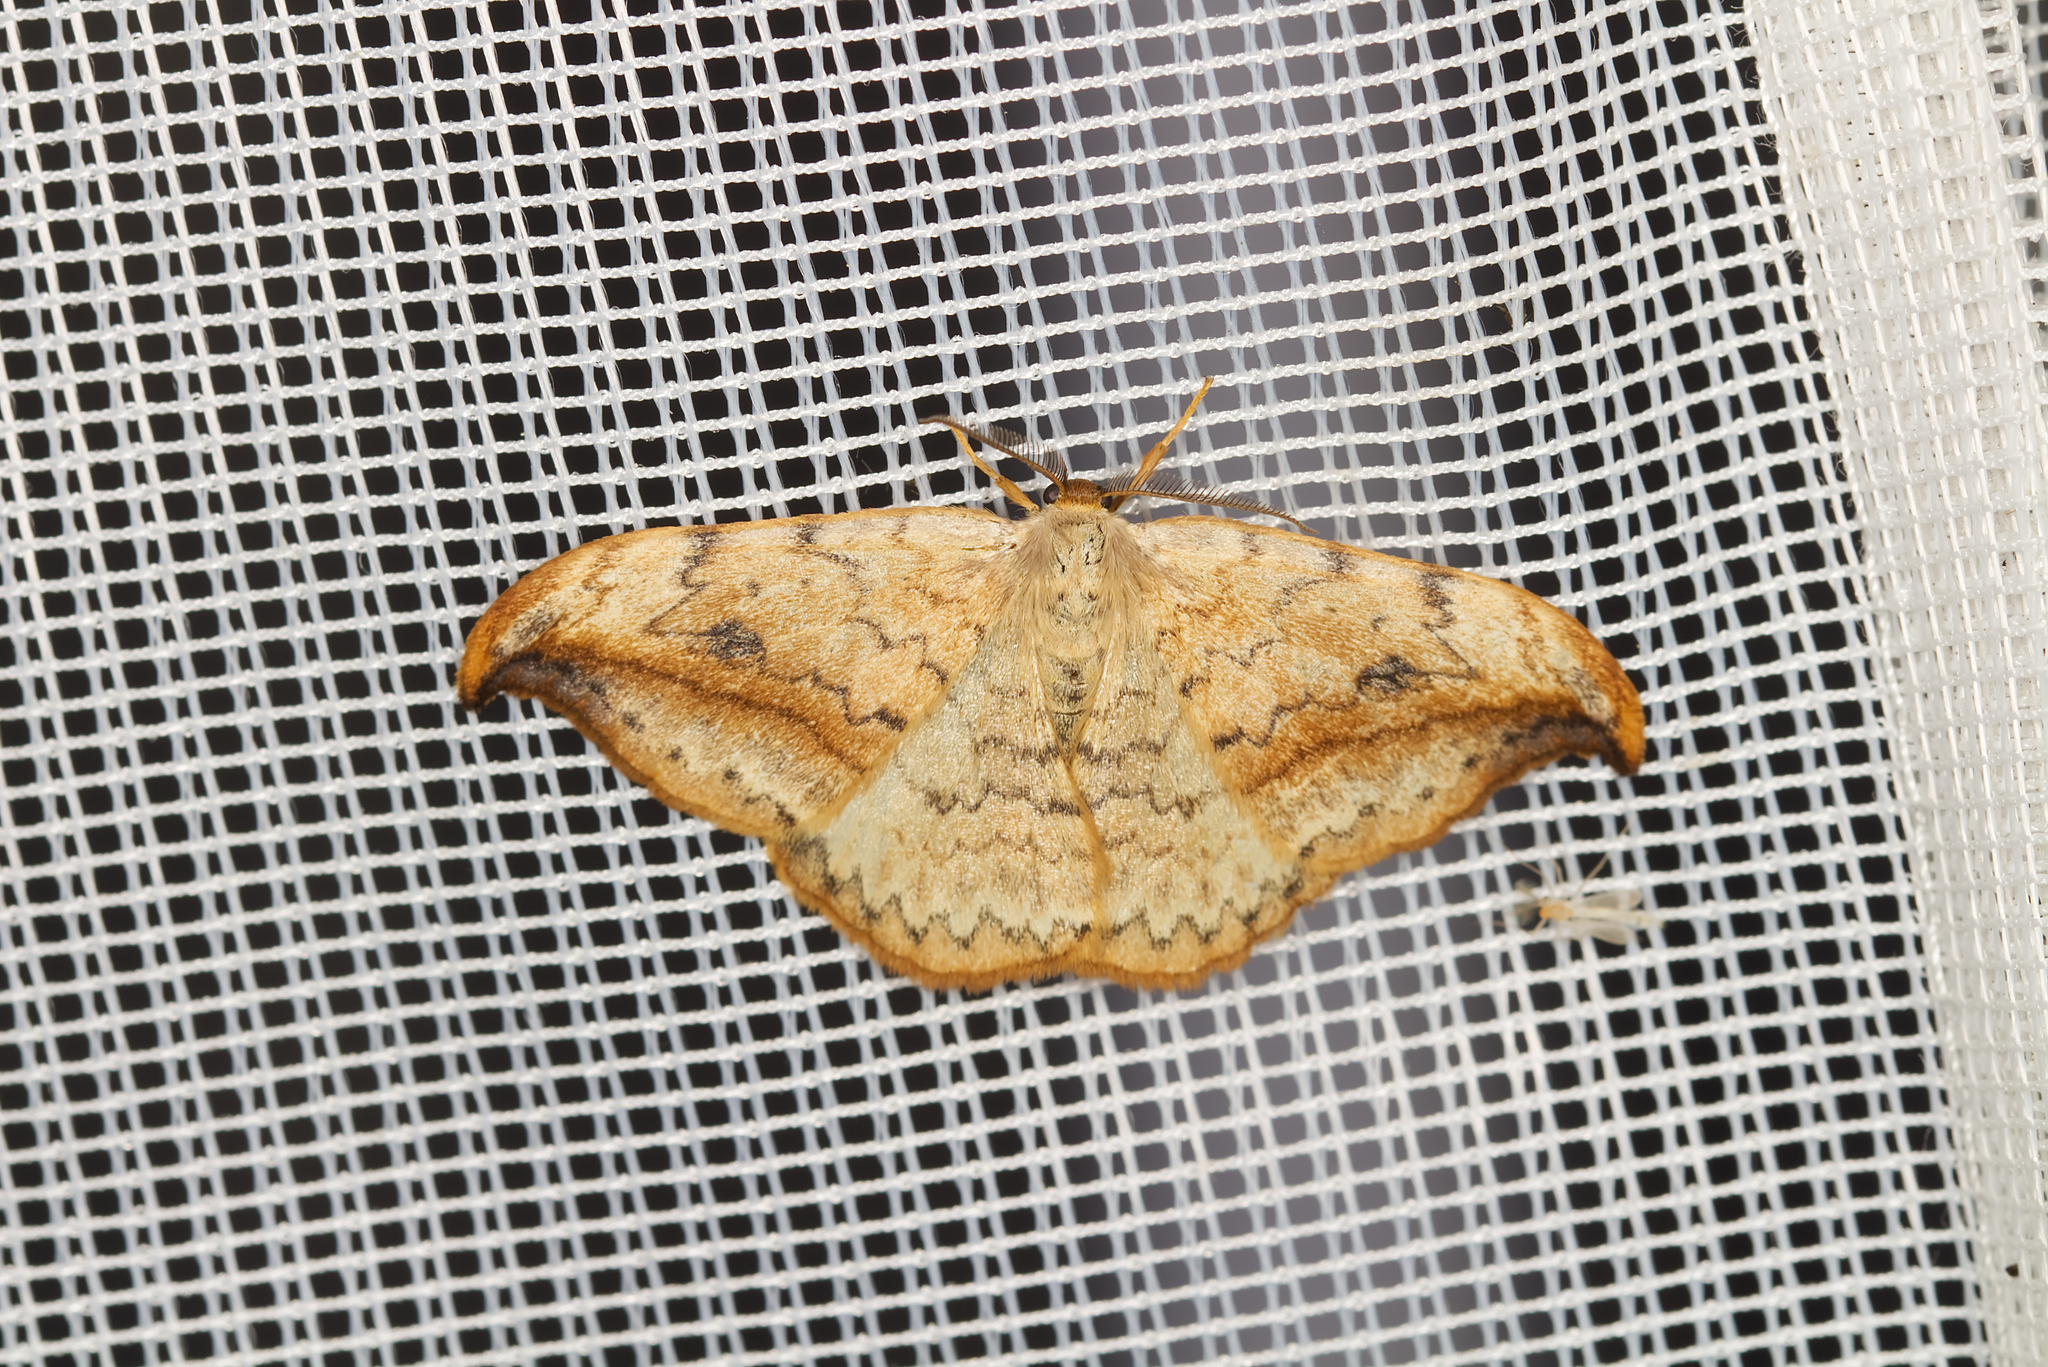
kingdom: Animalia
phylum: Arthropoda
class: Insecta
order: Lepidoptera
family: Drepanidae
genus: Drepana
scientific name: Drepana falcataria
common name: Pebble hook-tip
